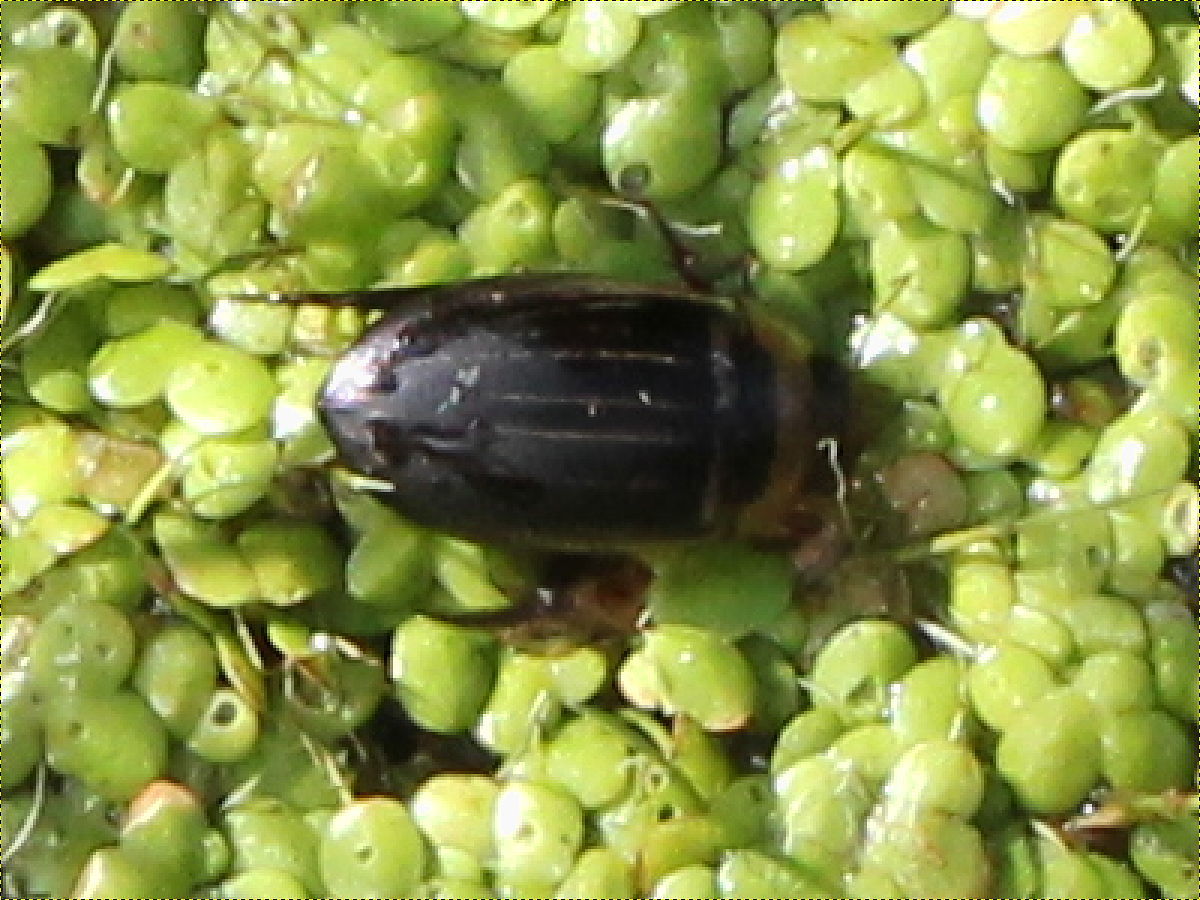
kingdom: Animalia
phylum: Arthropoda
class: Insecta
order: Coleoptera
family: Dytiscidae
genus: Hydaticus
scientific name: Hydaticus aruspex
